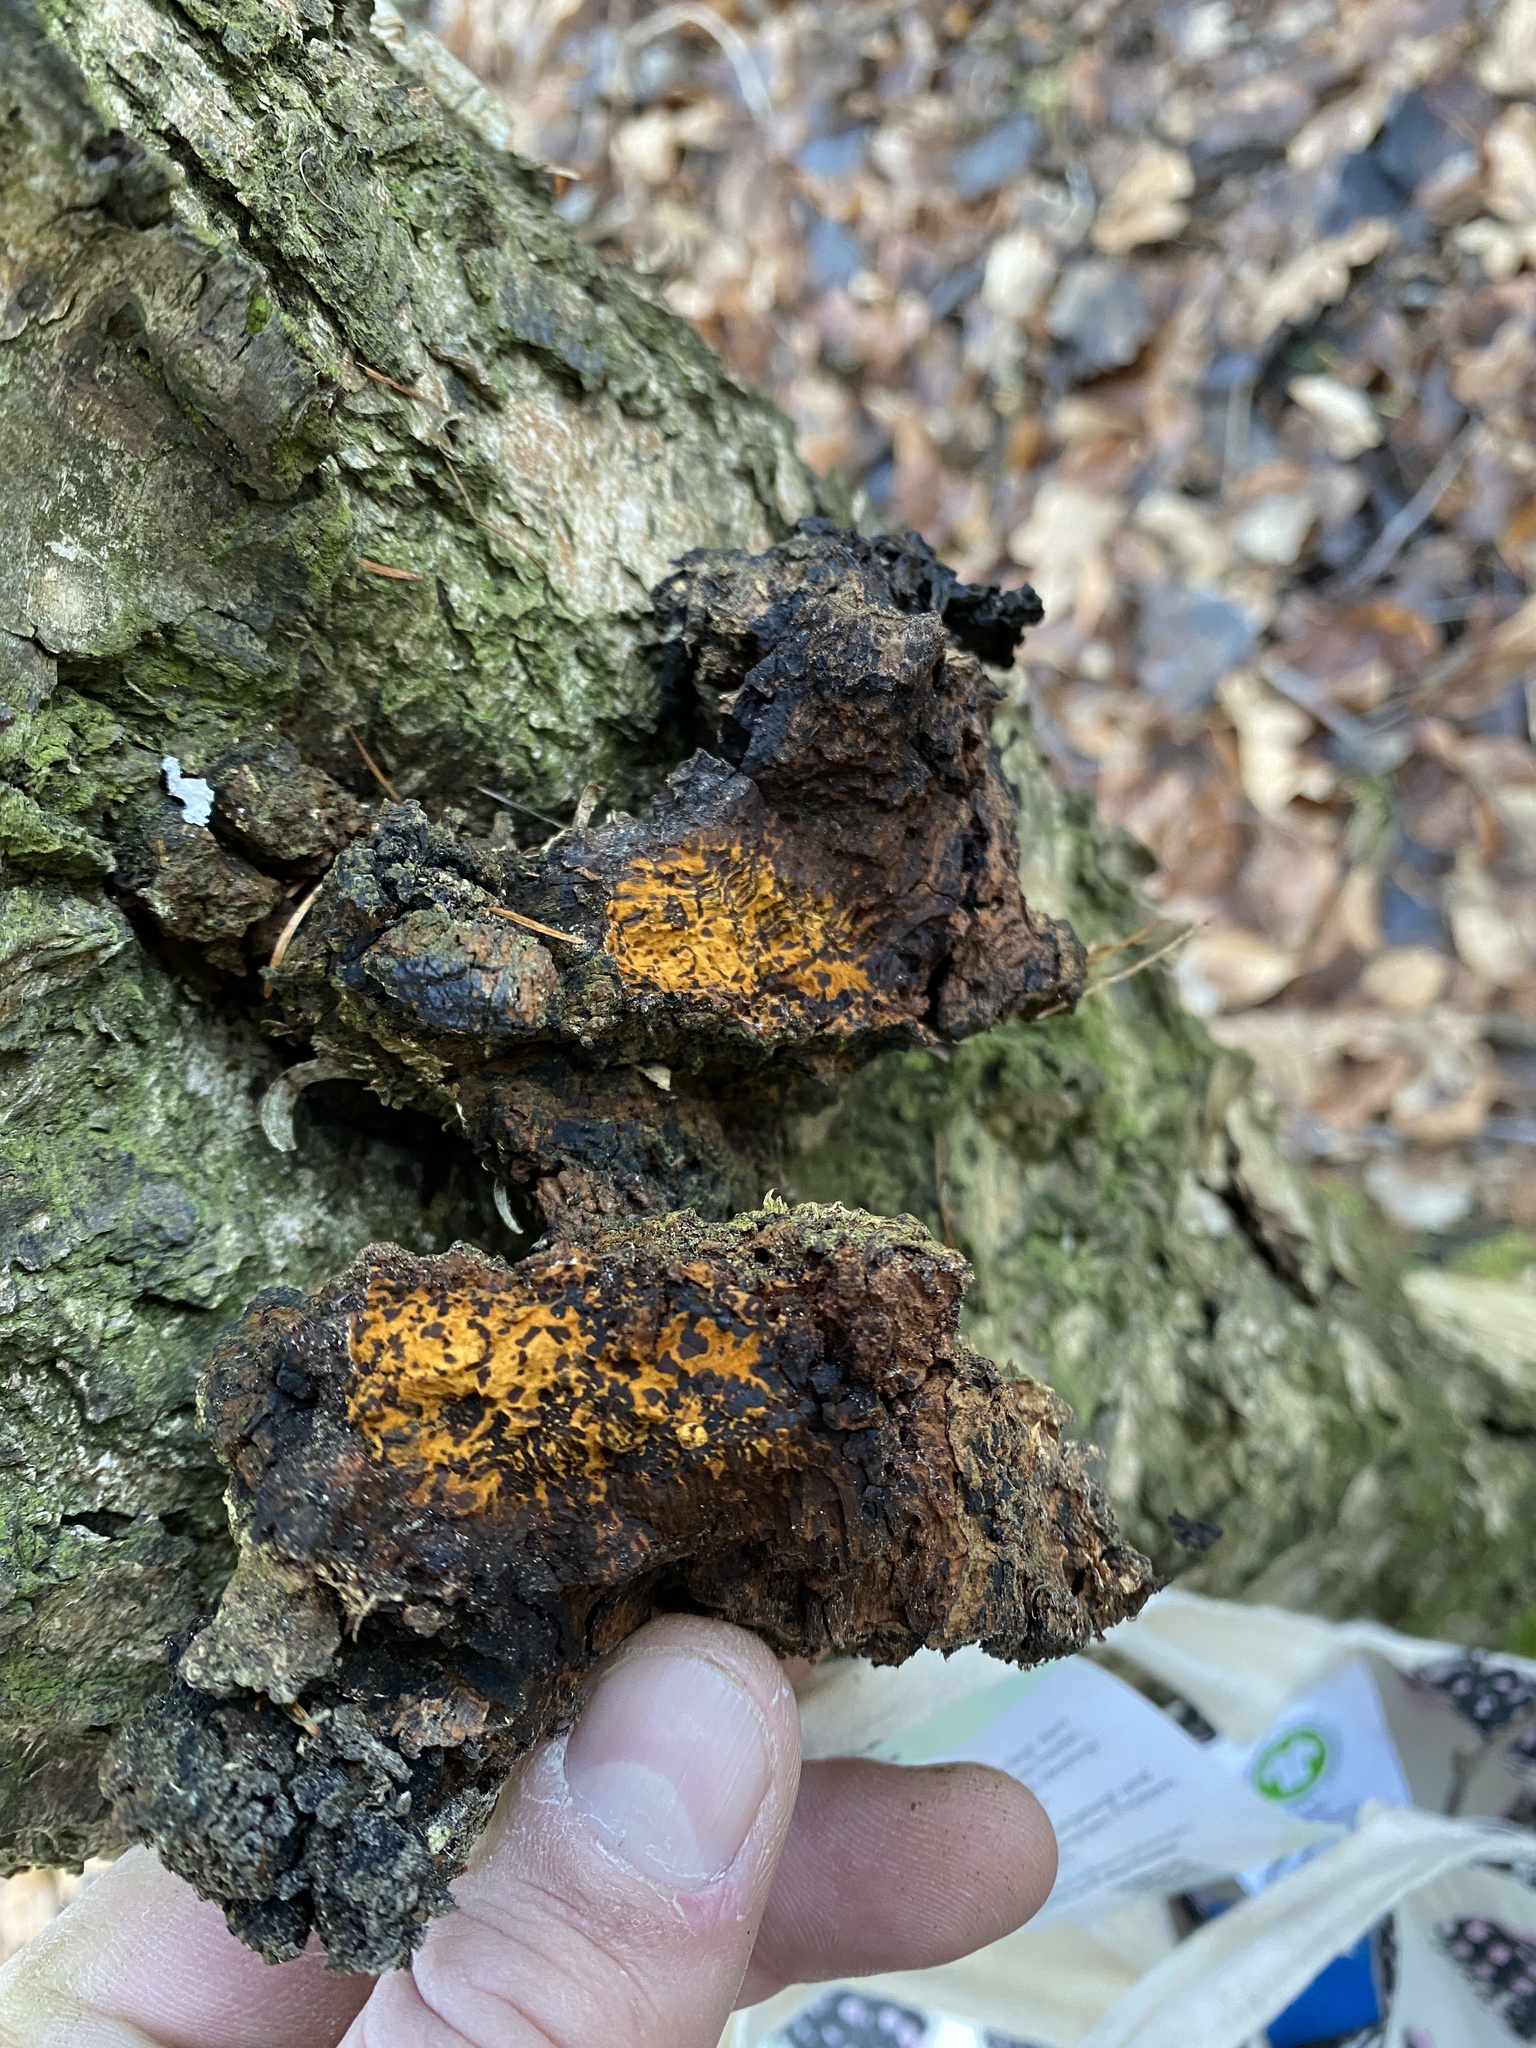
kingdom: Fungi
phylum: Basidiomycota
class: Agaricomycetes
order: Hymenochaetales
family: Hymenochaetaceae
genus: Inonotus
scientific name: Inonotus obliquus
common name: Chaga
